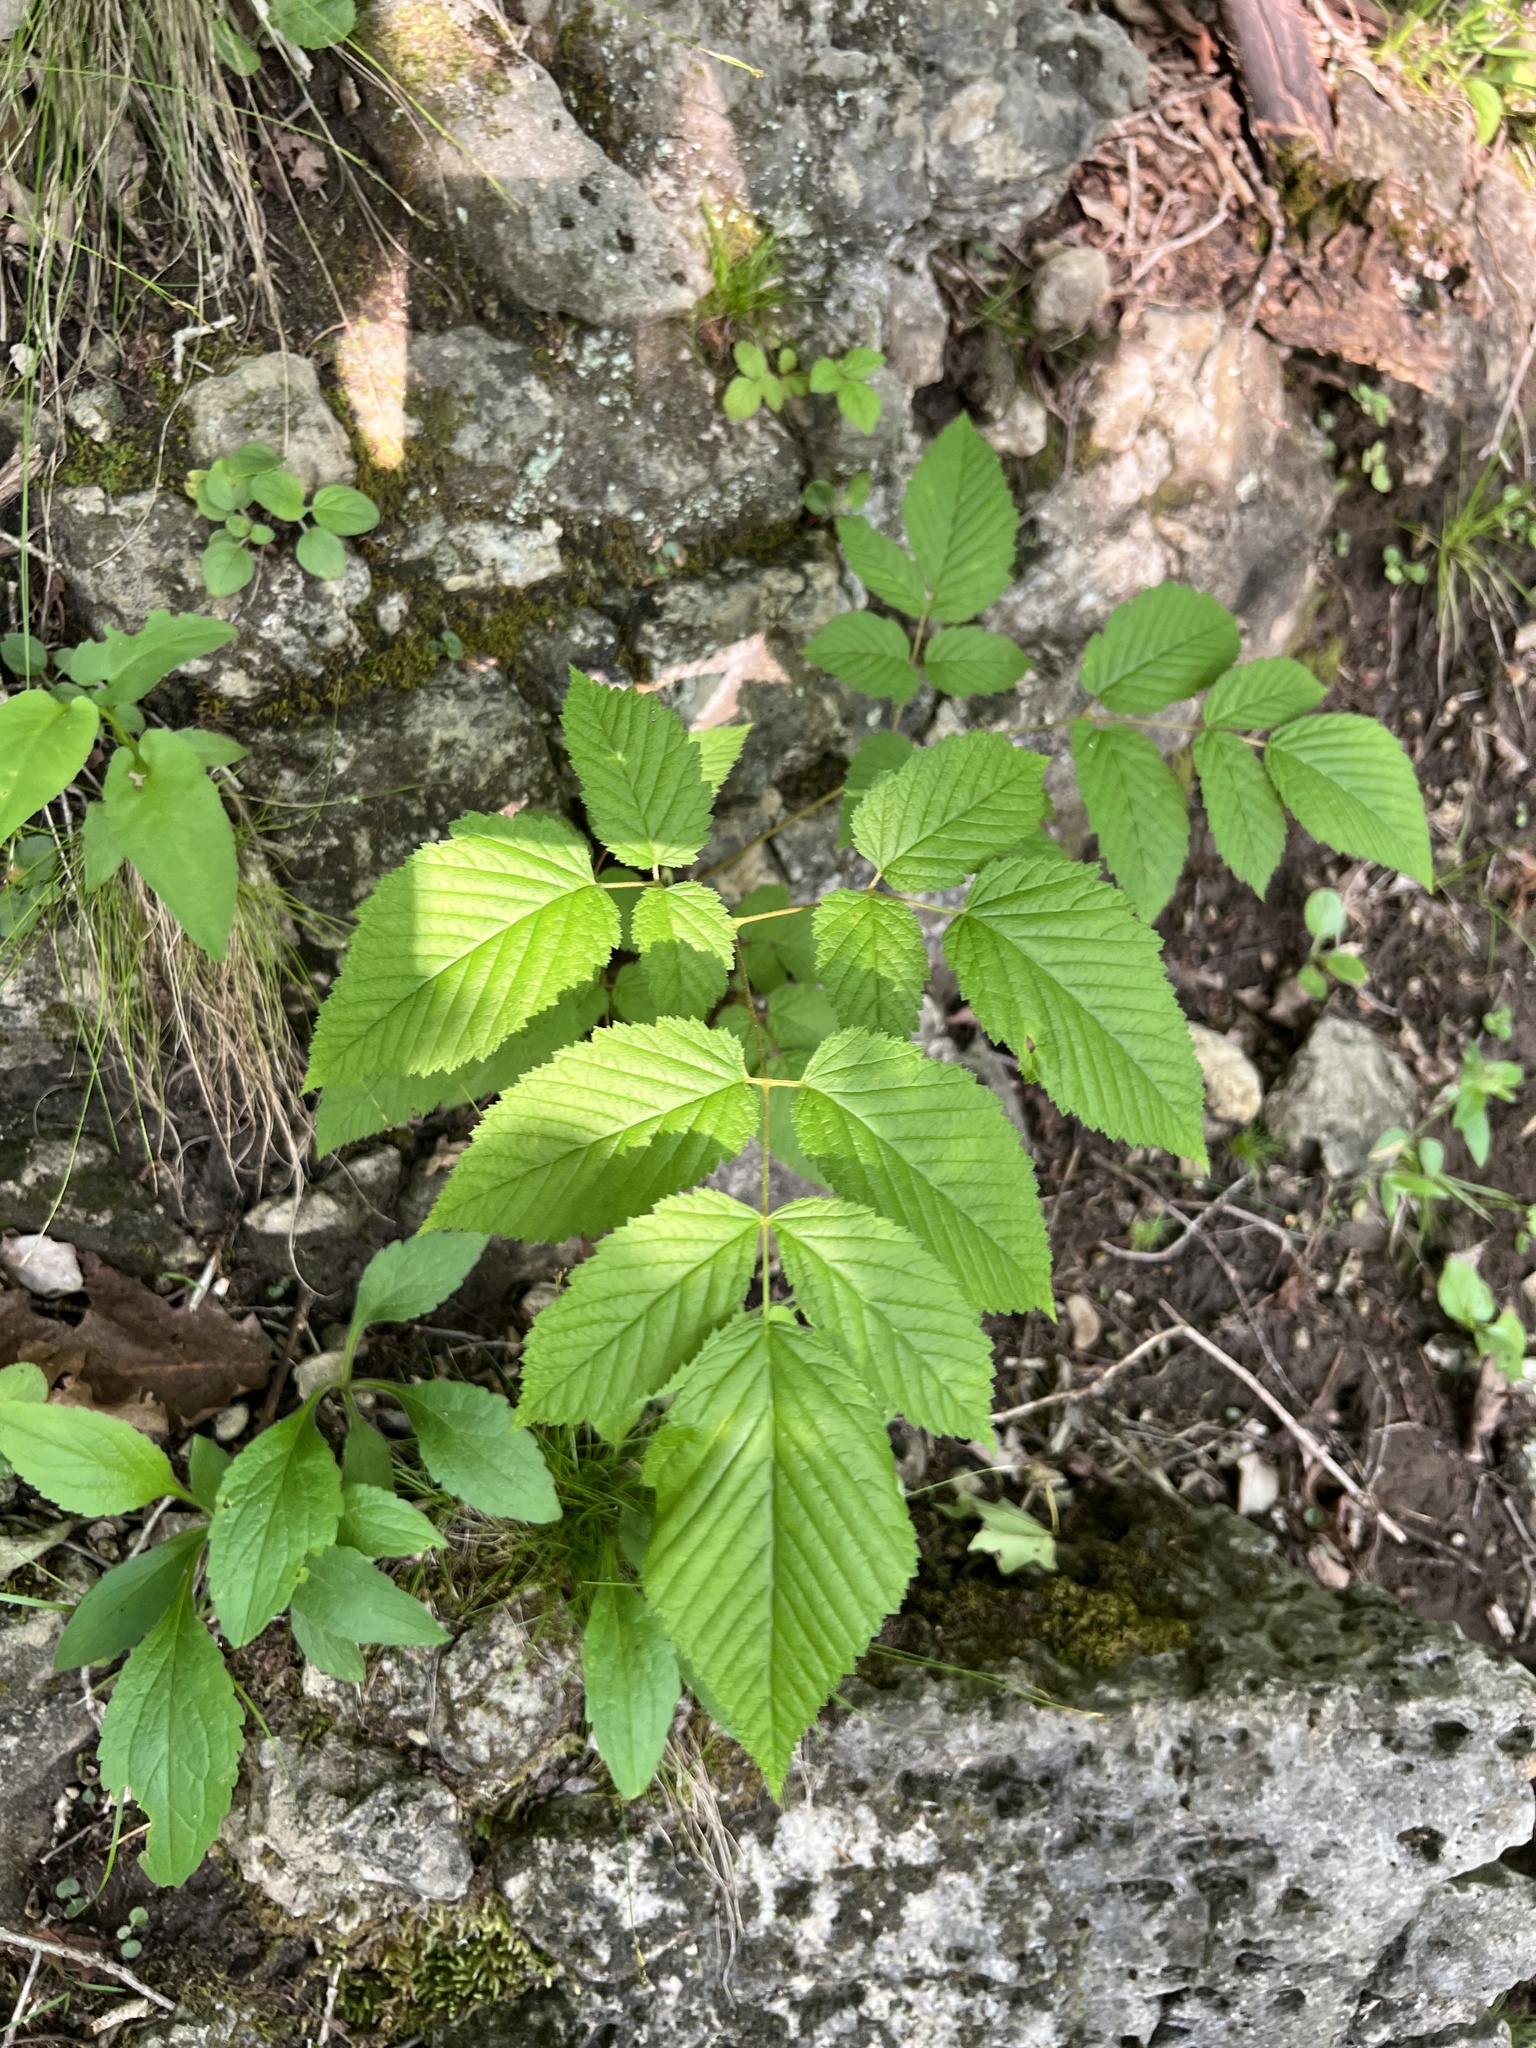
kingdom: Plantae
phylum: Tracheophyta
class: Magnoliopsida
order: Rosales
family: Rosaceae
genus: Aruncus
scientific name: Aruncus dioicus
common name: Buck's-beard
